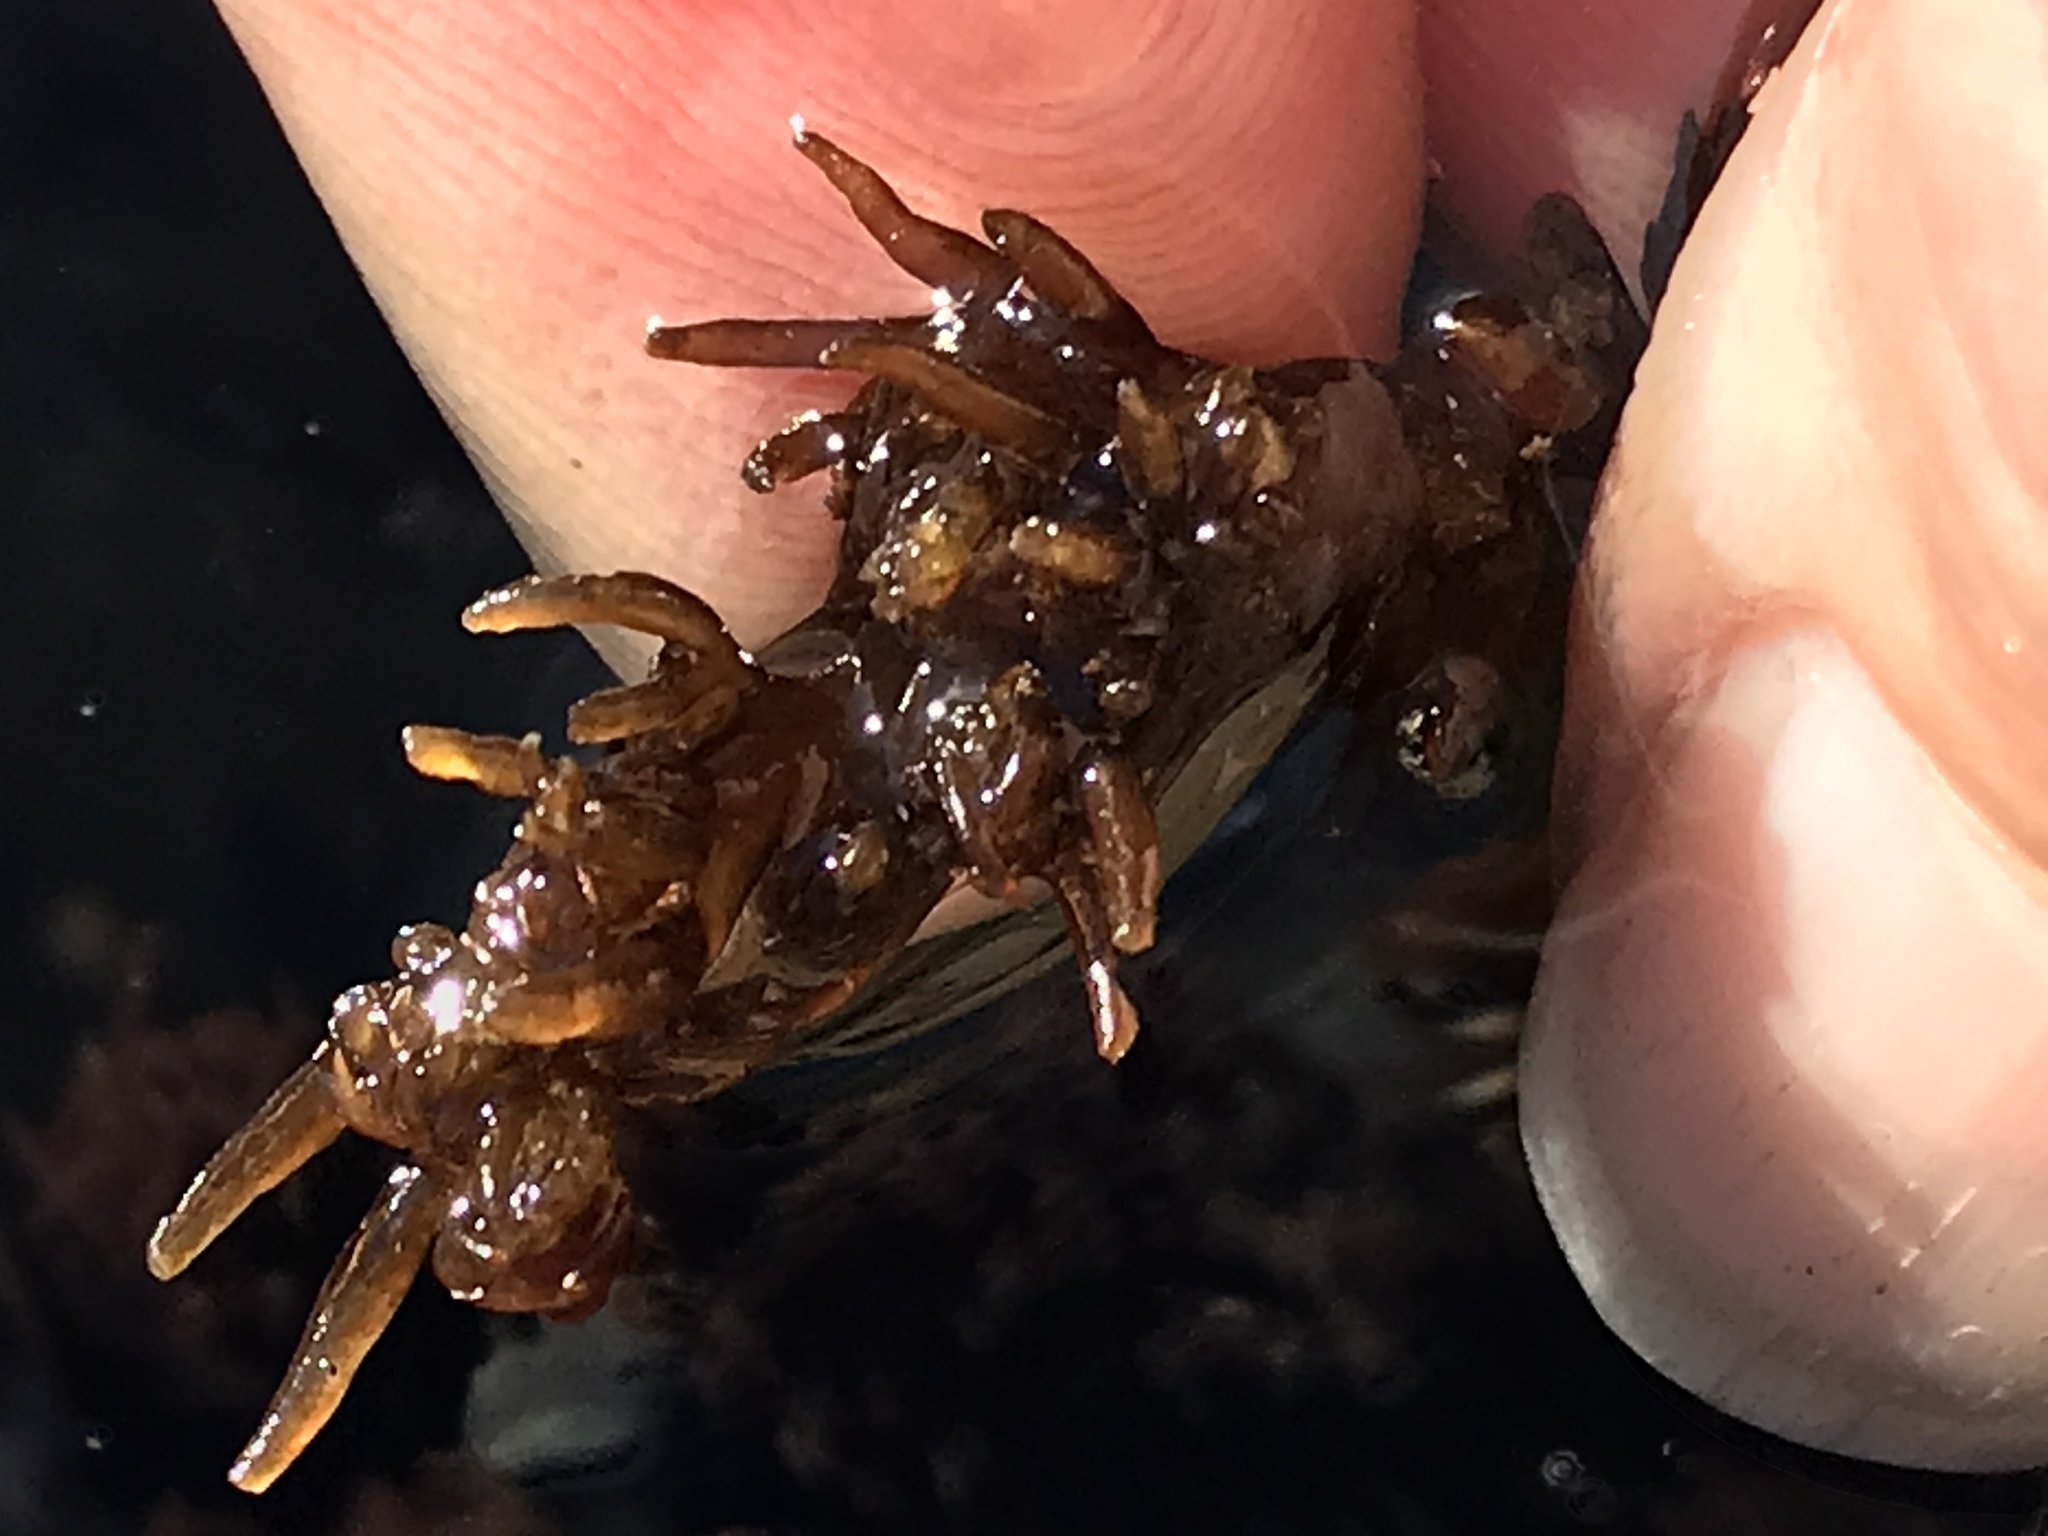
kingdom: Plantae
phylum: Rhodophyta
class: Florideophyceae
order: Ceramiales
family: Rhodomelaceae
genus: Neorhodomela
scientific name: Neorhodomela larix
